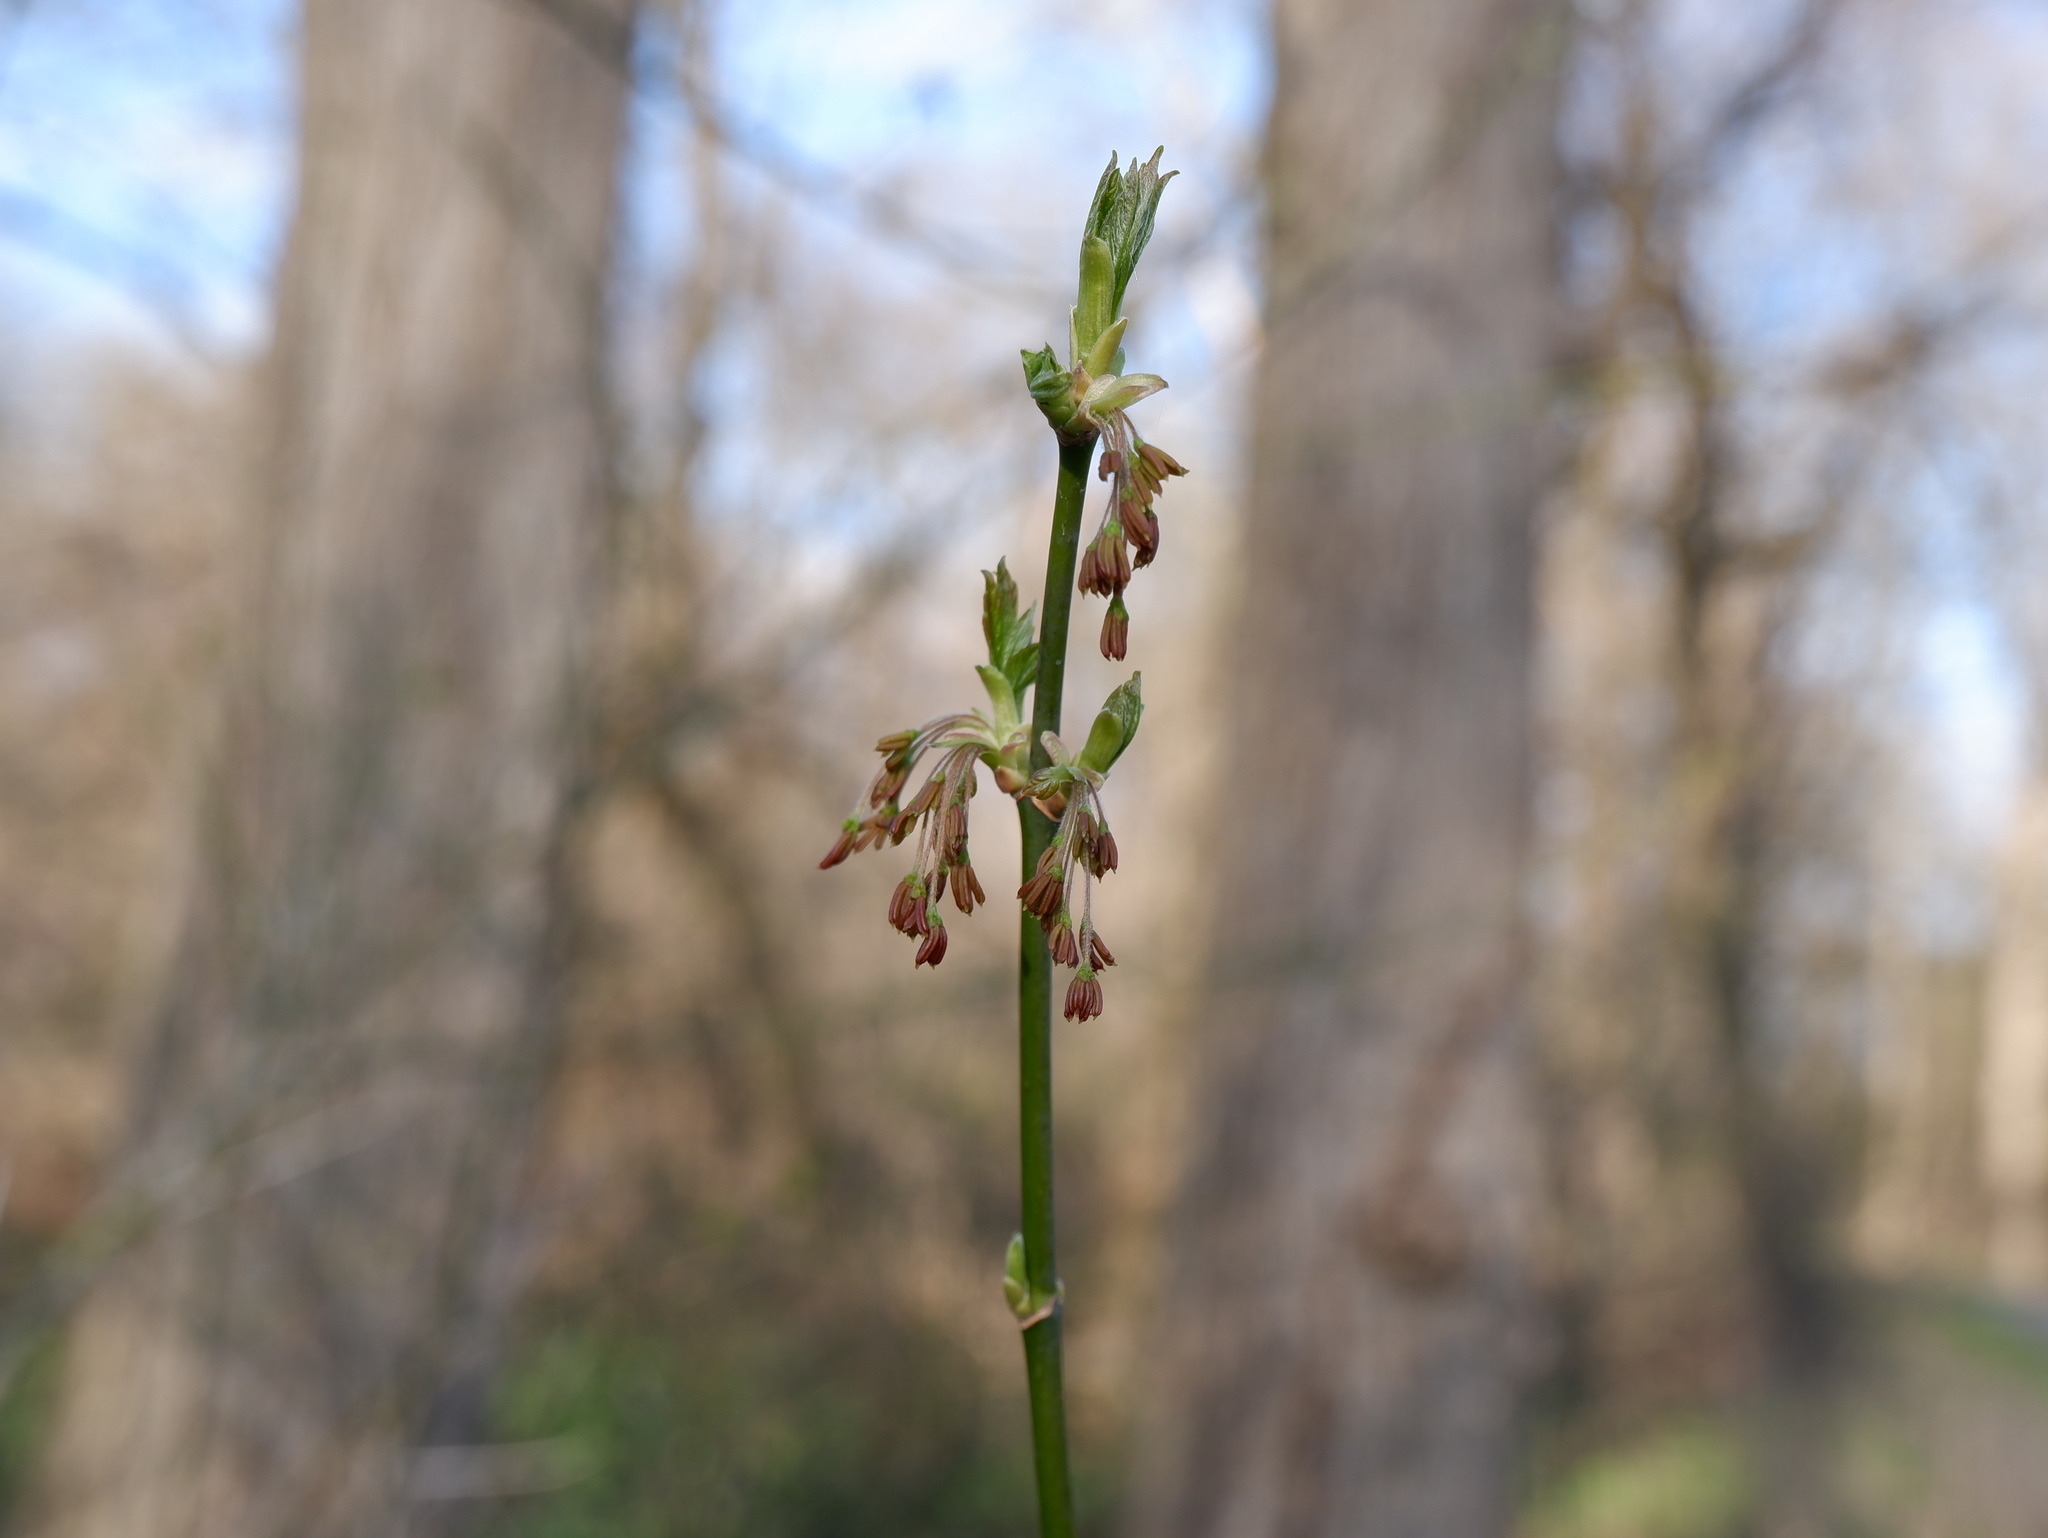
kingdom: Plantae
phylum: Tracheophyta
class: Magnoliopsida
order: Sapindales
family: Sapindaceae
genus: Acer
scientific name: Acer negundo
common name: Ashleaf maple
